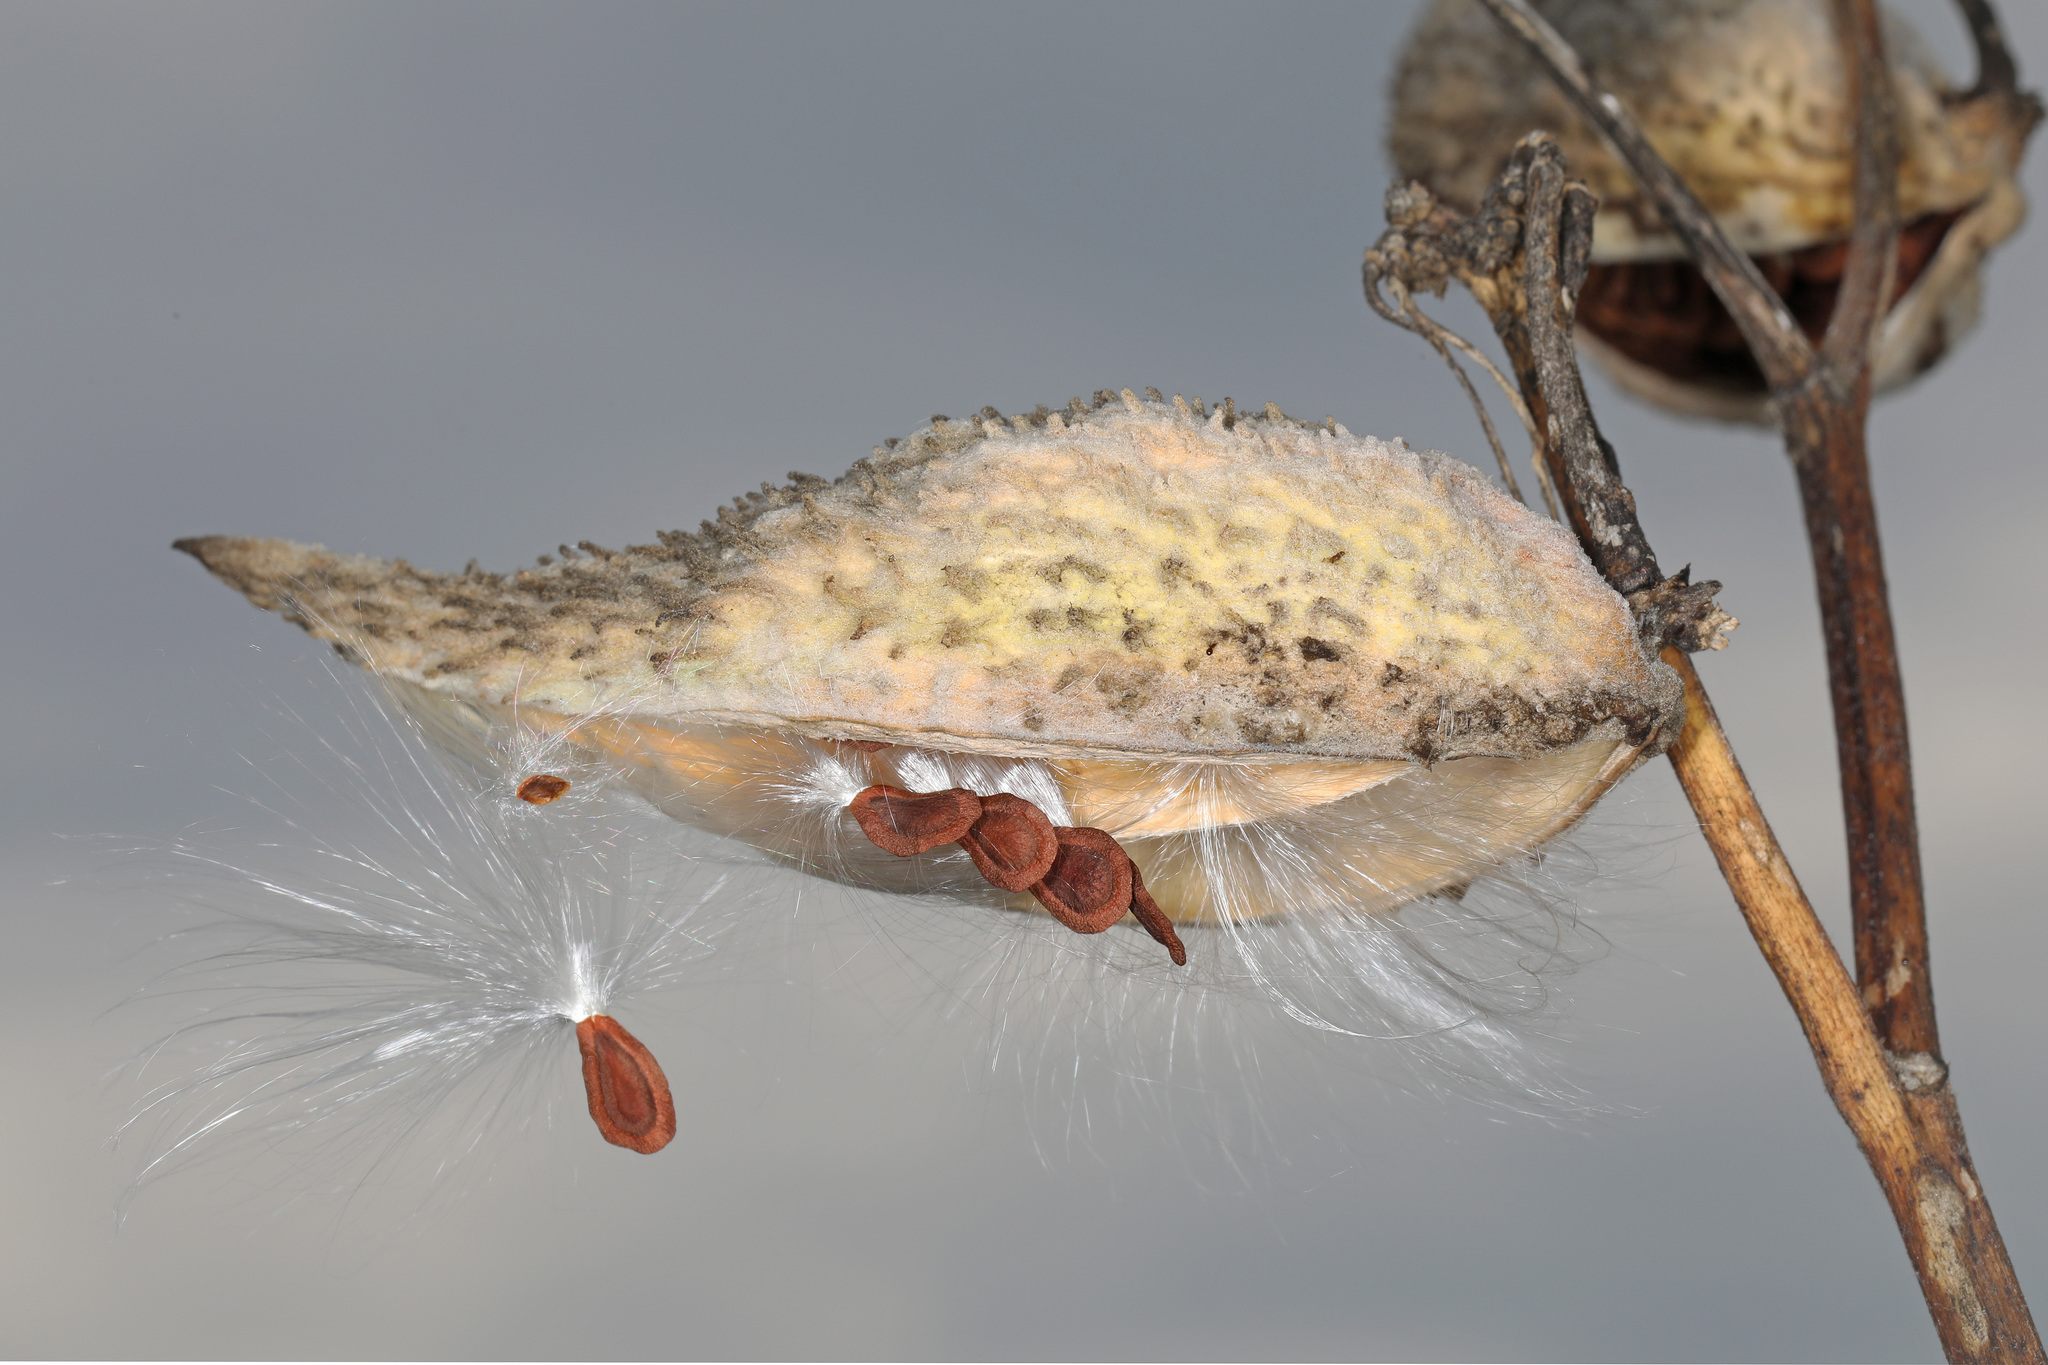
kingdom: Plantae
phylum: Tracheophyta
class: Magnoliopsida
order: Gentianales
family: Apocynaceae
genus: Asclepias
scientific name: Asclepias syriaca
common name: Common milkweed
